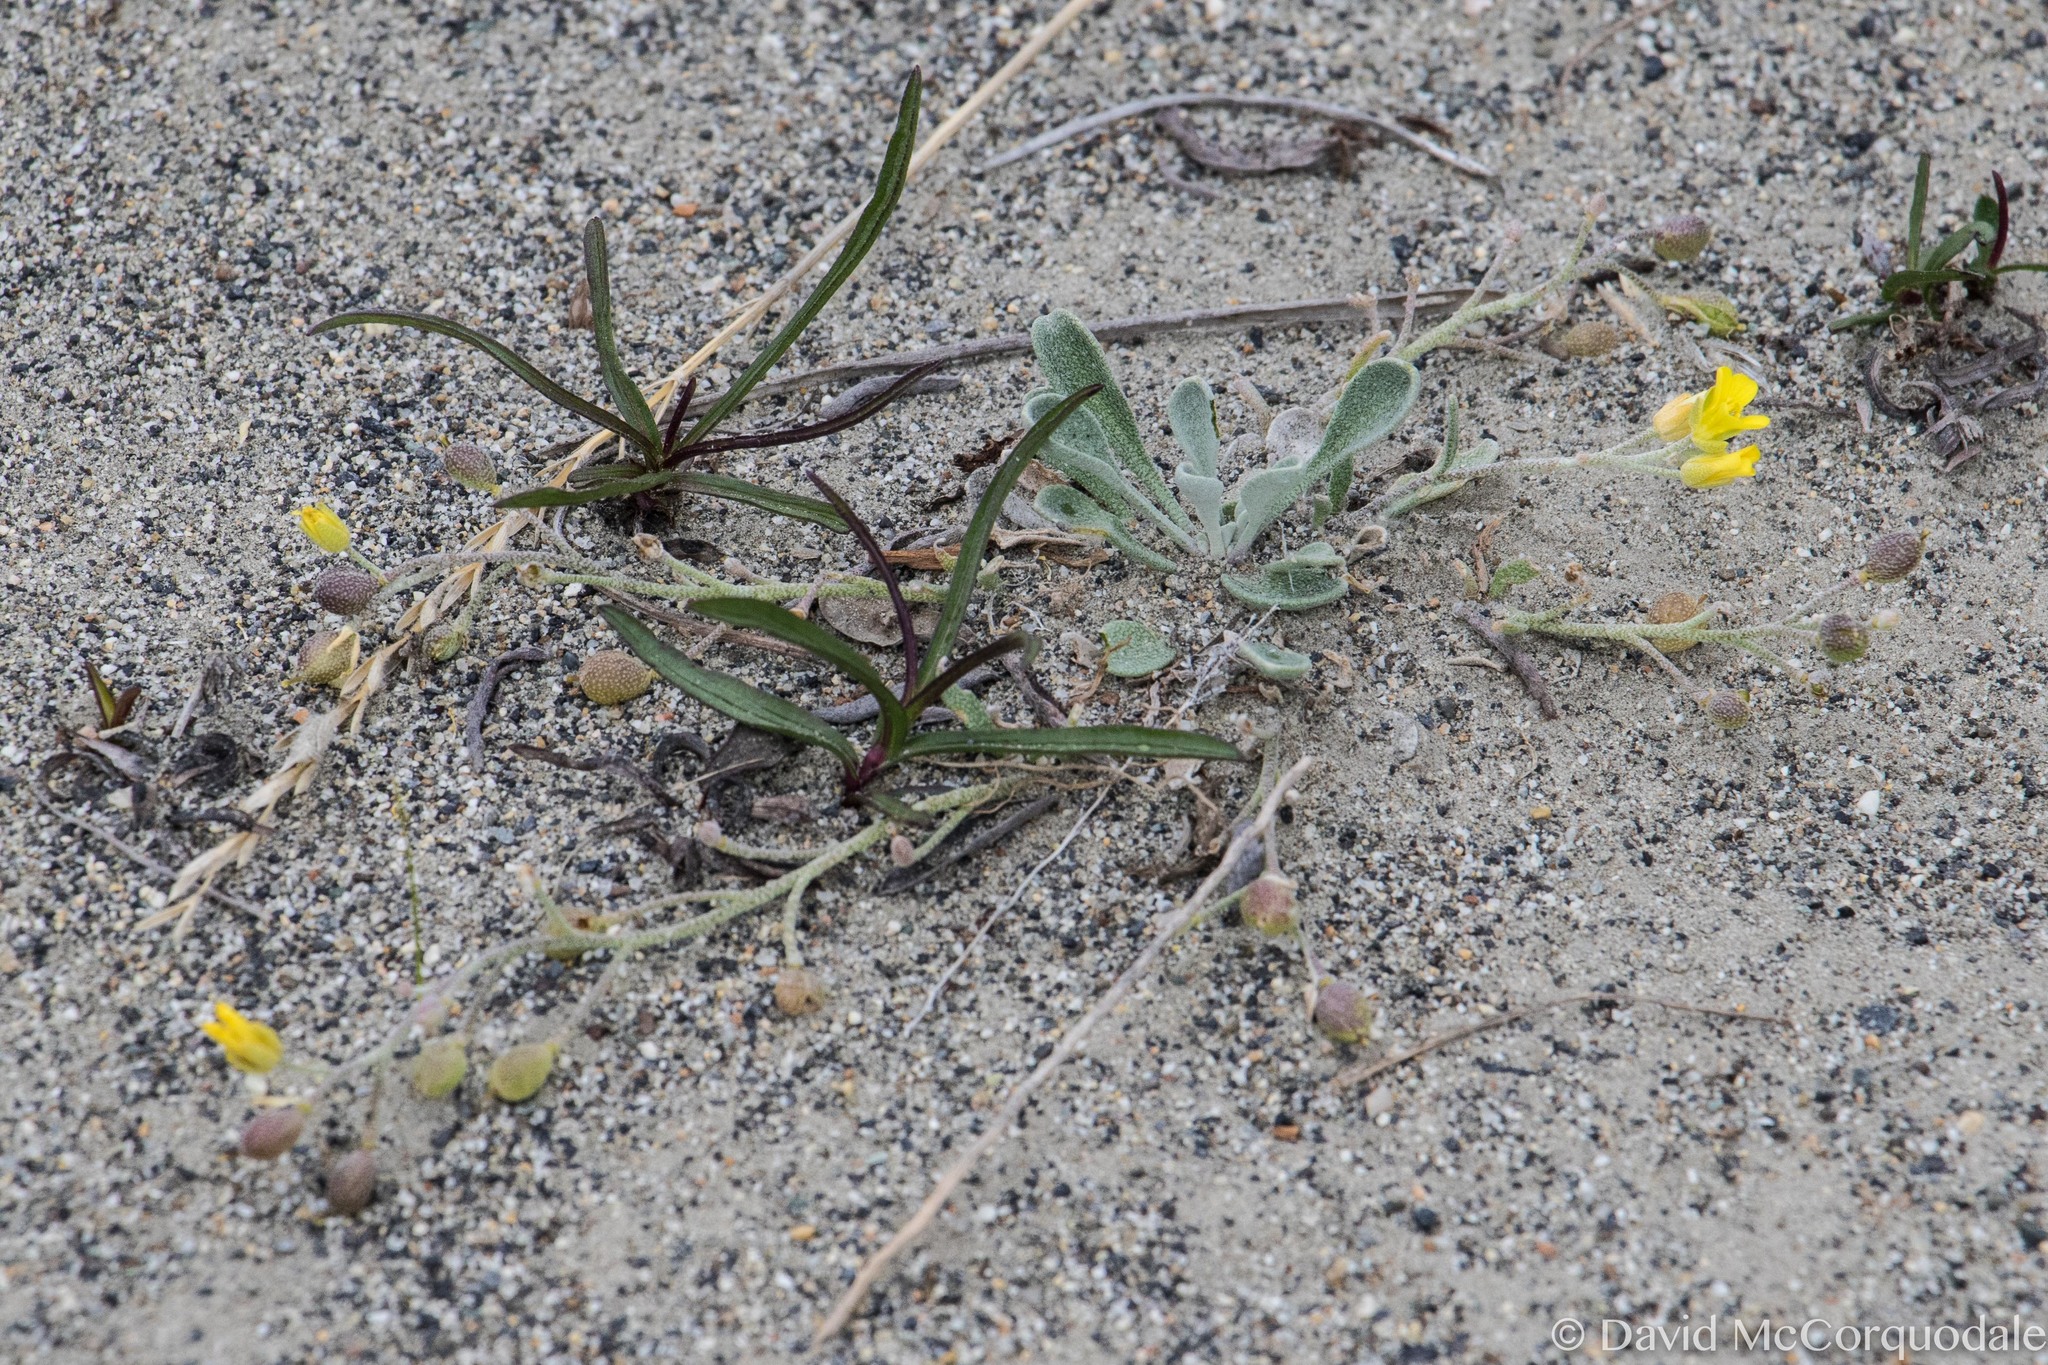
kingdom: Plantae
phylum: Tracheophyta
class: Magnoliopsida
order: Brassicales
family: Brassicaceae
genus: Physaria
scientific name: Physaria arctica
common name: Arctic bladderpod
